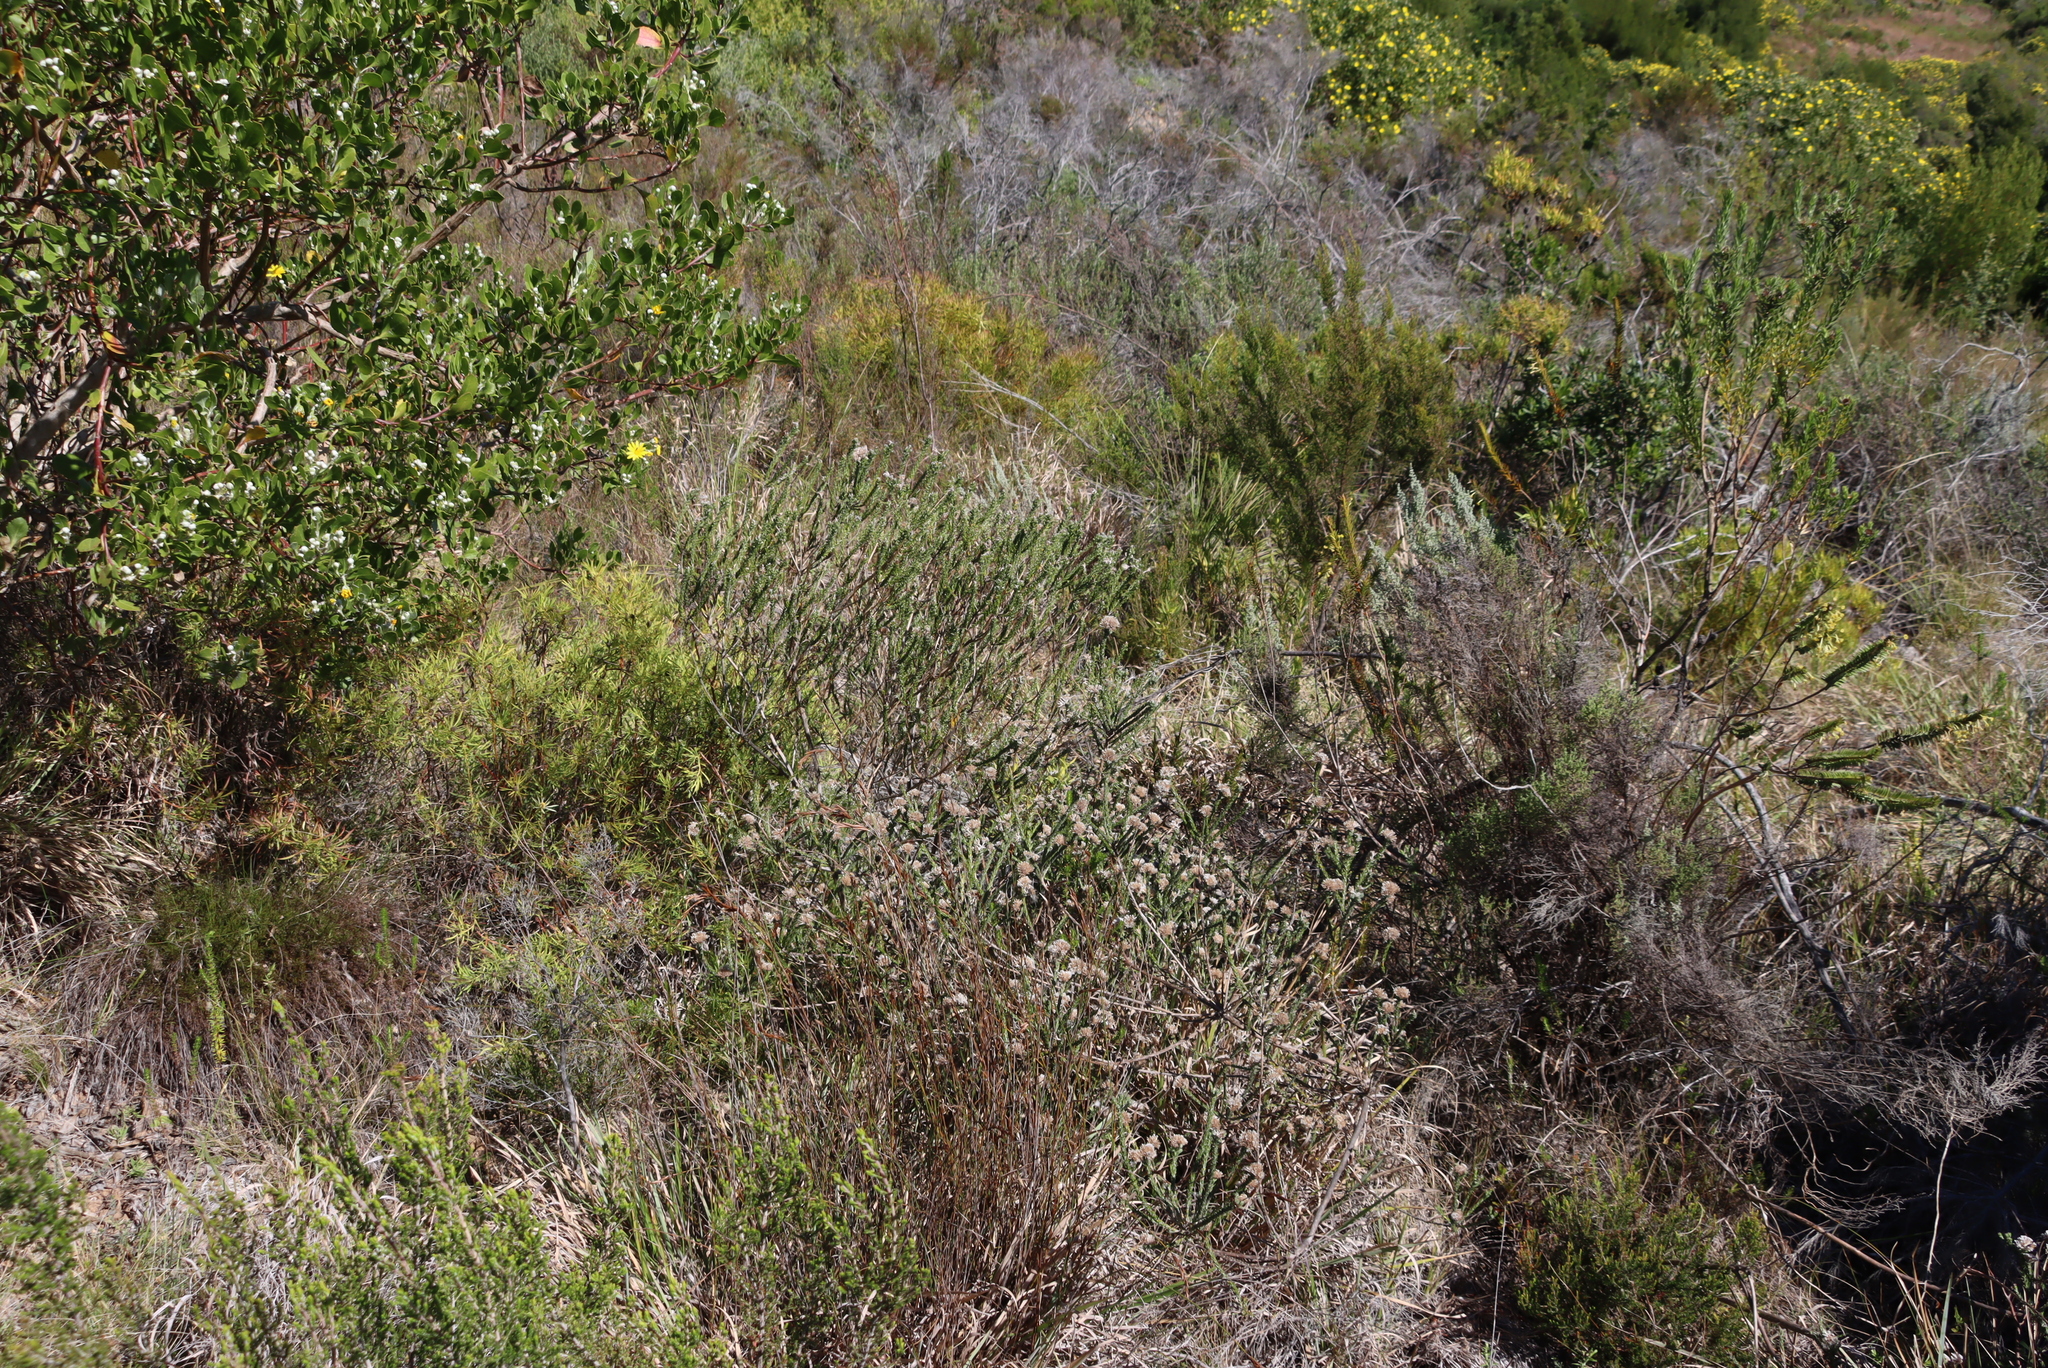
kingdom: Plantae
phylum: Tracheophyta
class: Magnoliopsida
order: Asterales
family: Asteraceae
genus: Metalasia
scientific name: Metalasia pungens
